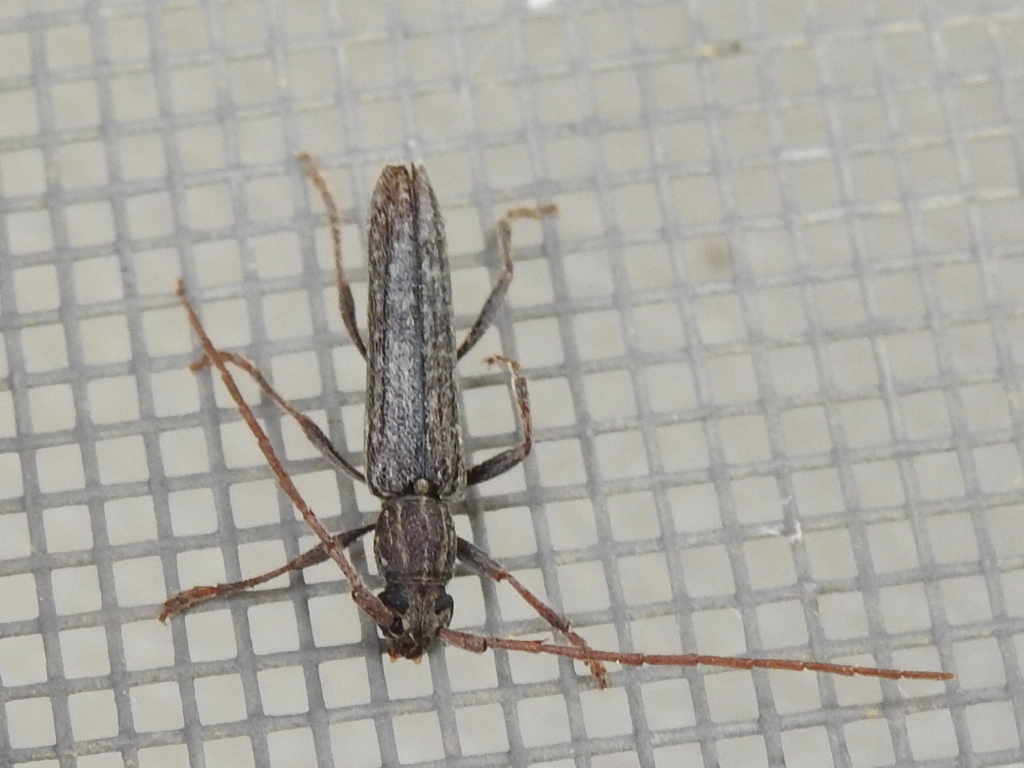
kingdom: Animalia
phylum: Arthropoda
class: Insecta
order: Coleoptera
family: Cerambycidae
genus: Anelaphus
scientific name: Anelaphus villosus
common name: Twig pruner
